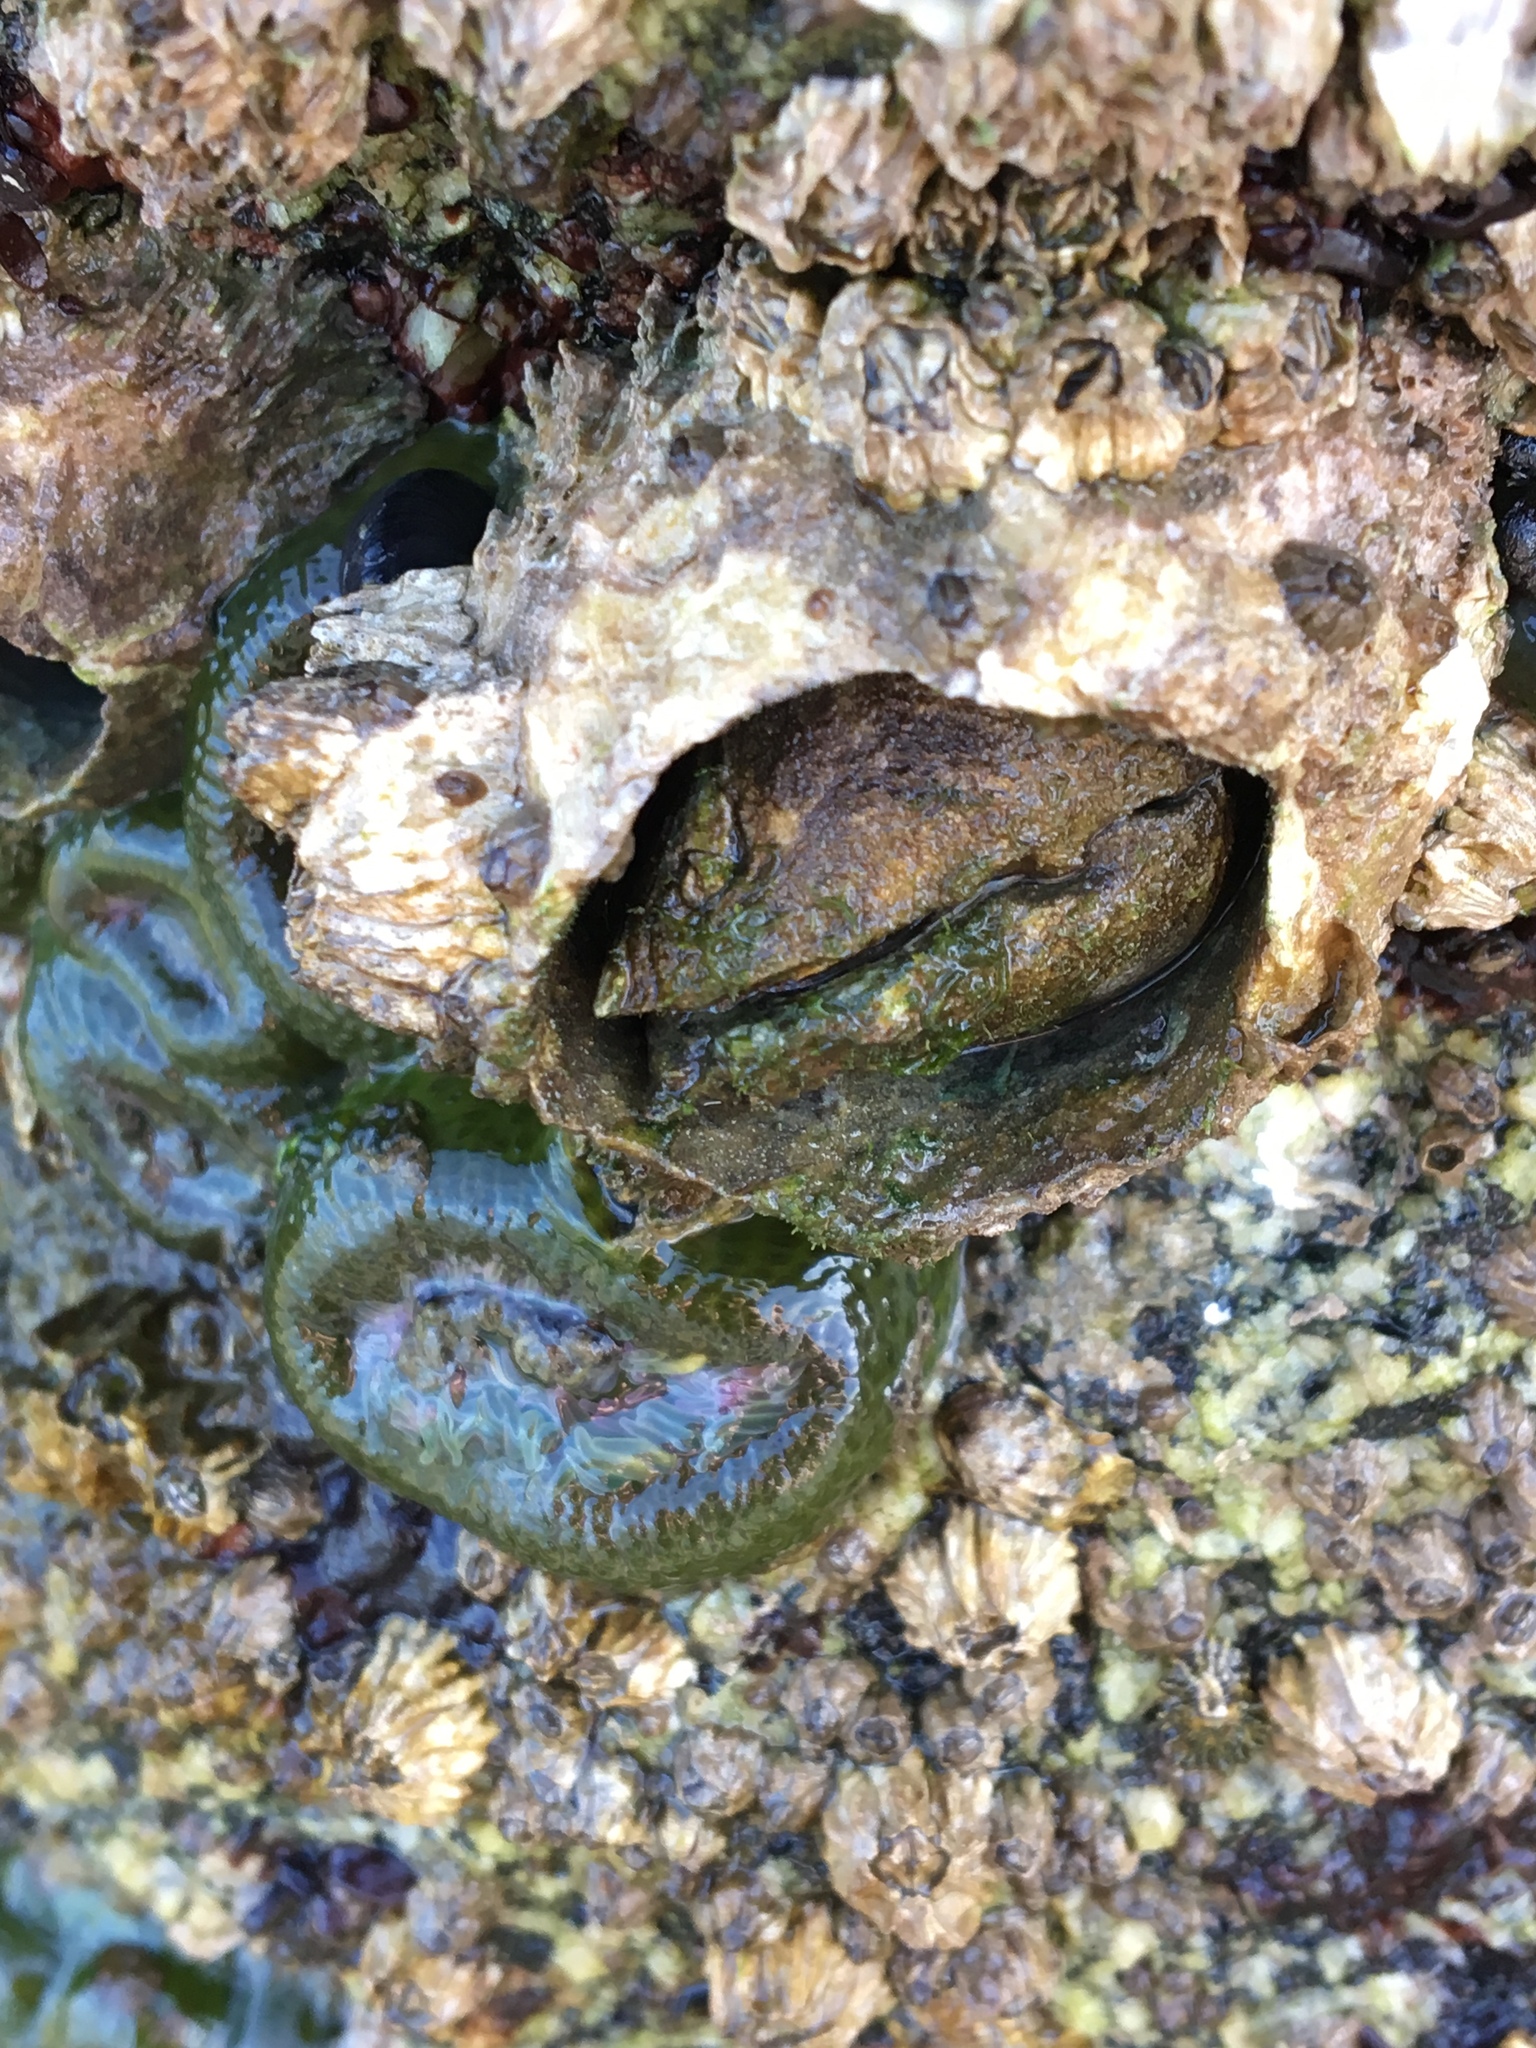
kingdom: Animalia
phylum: Arthropoda
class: Maxillopoda
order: Sessilia
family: Archaeobalanidae
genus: Semibalanus
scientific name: Semibalanus cariosus
